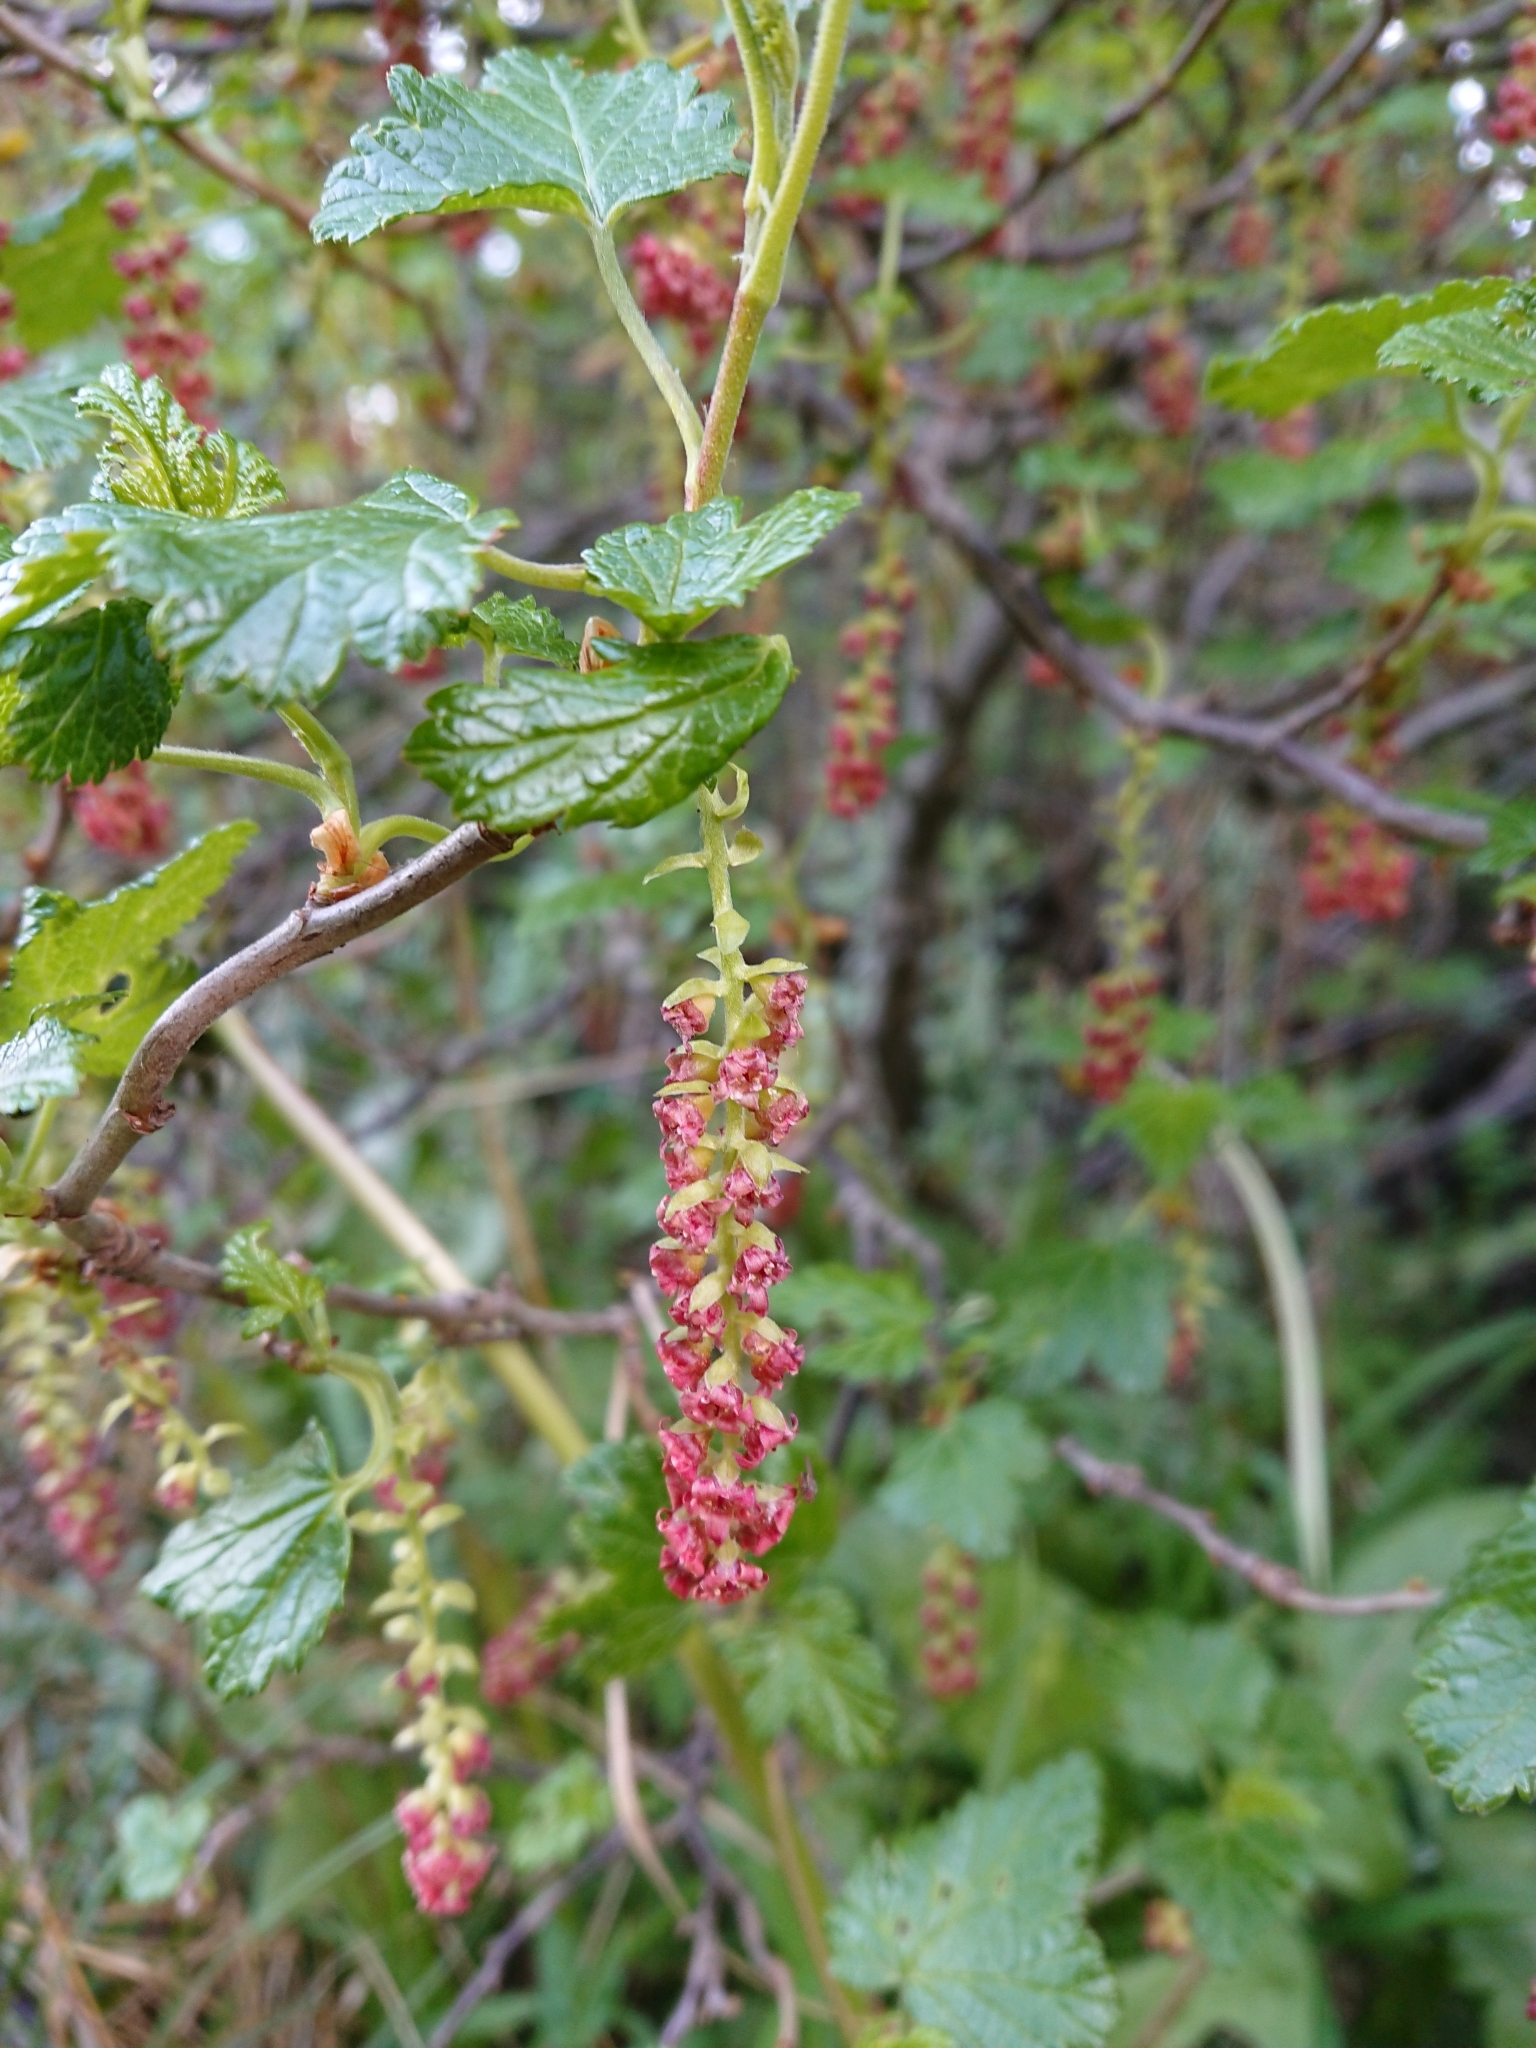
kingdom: Plantae
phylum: Tracheophyta
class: Magnoliopsida
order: Saxifragales
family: Grossulariaceae
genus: Ribes
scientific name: Ribes magellanicum
